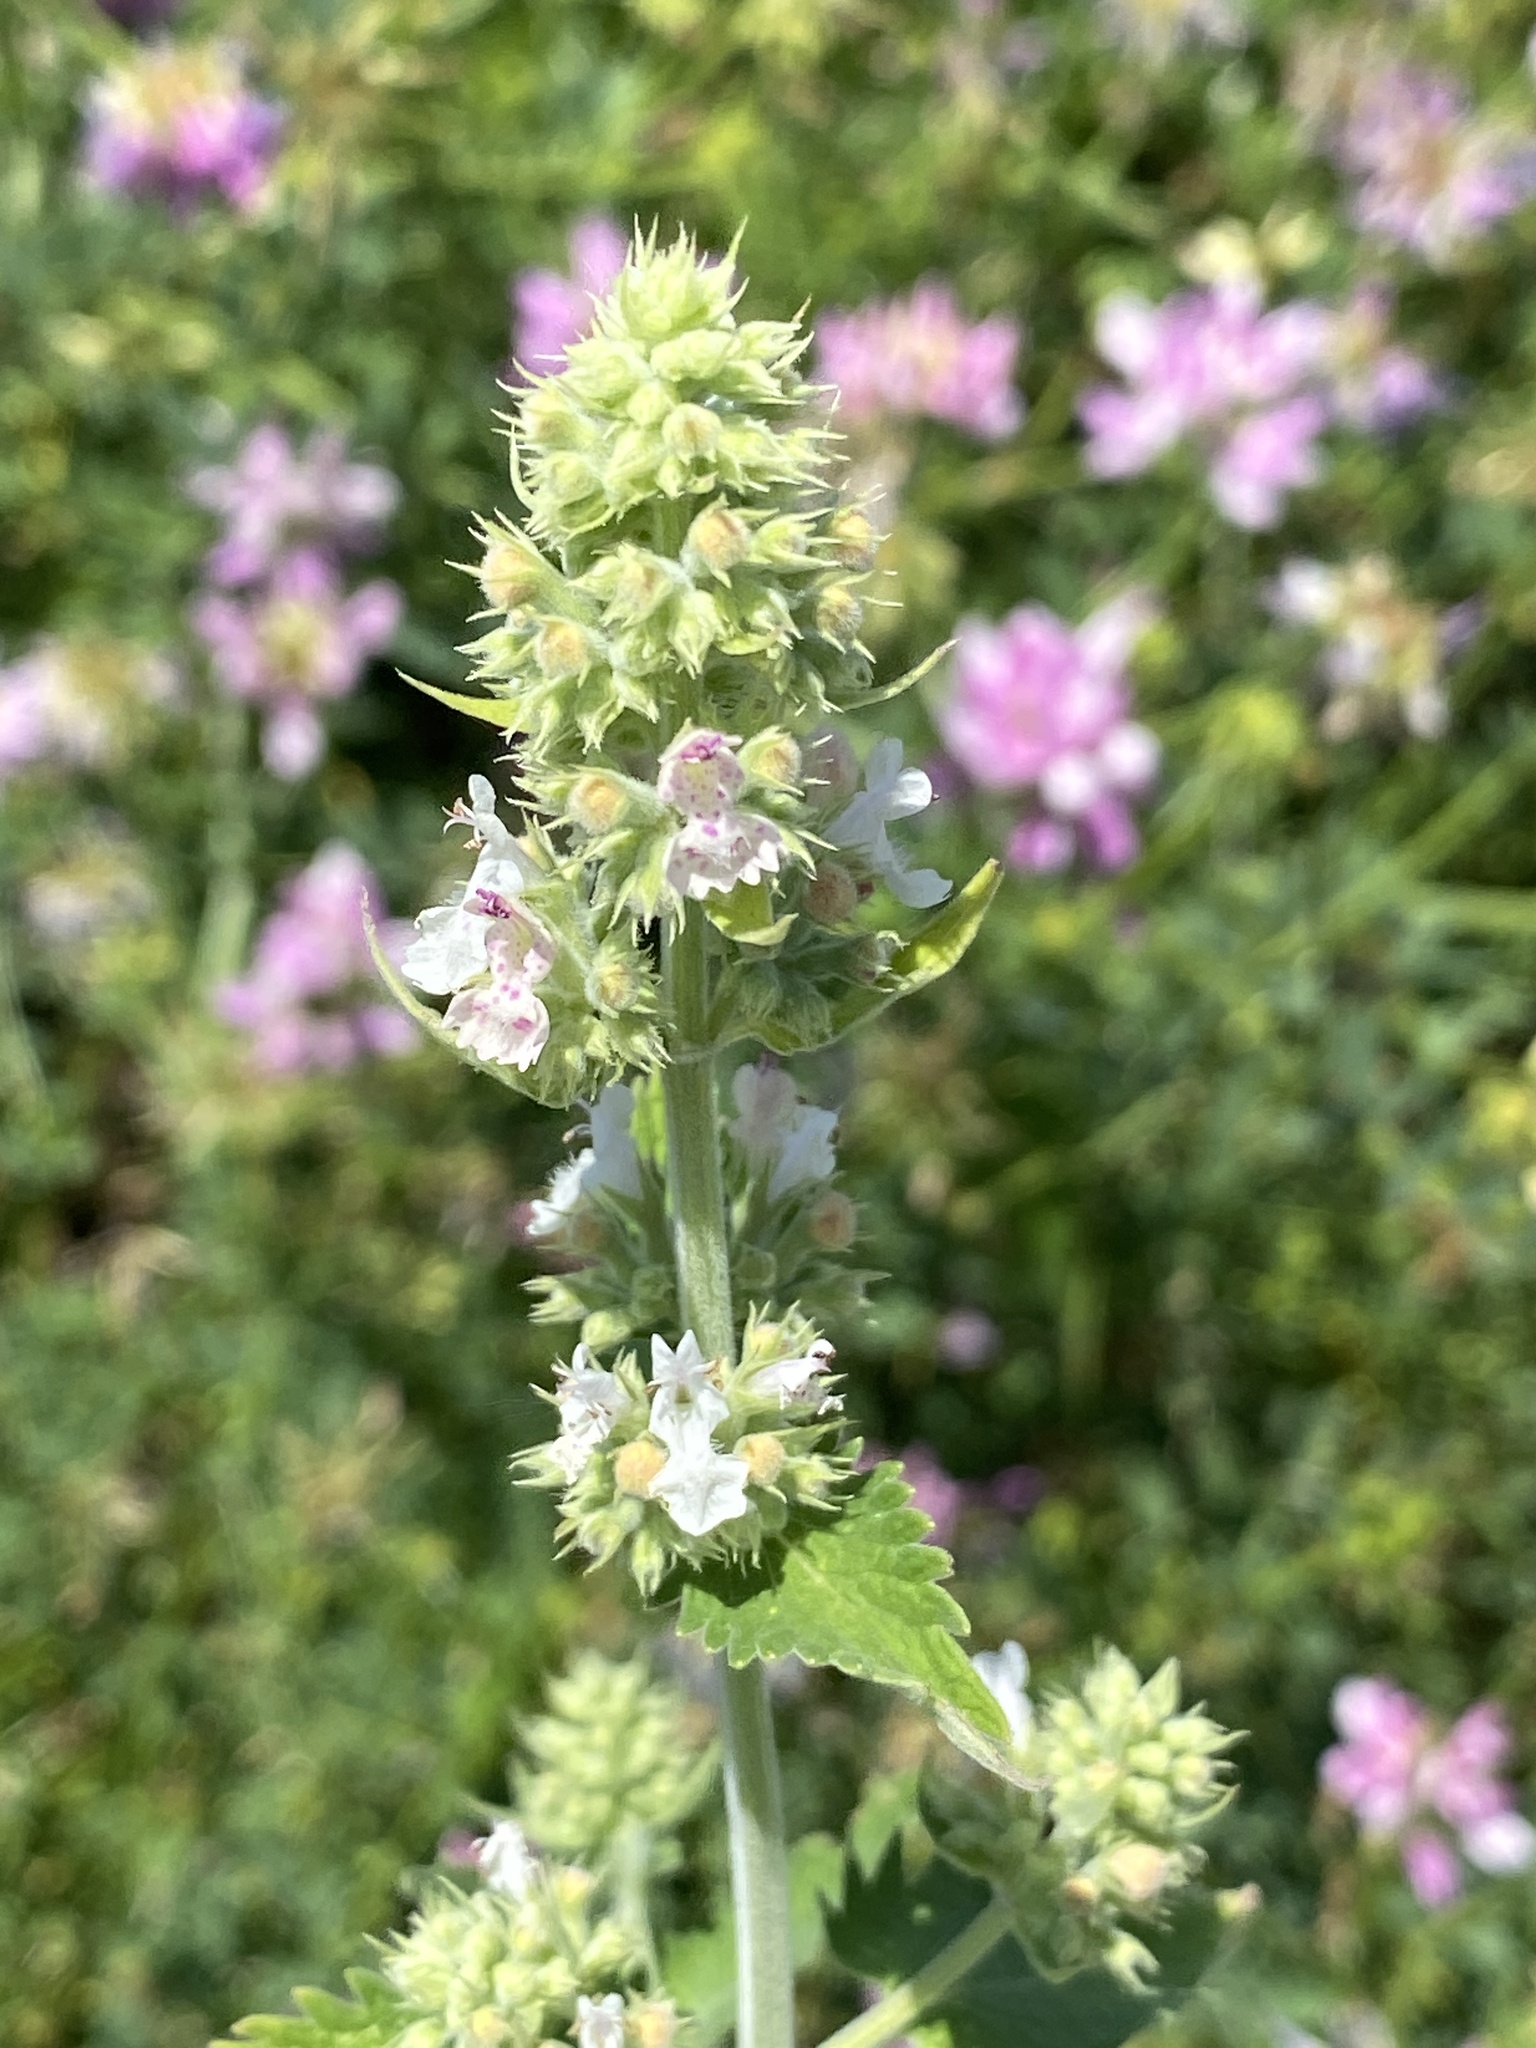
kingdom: Plantae
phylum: Tracheophyta
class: Magnoliopsida
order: Lamiales
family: Lamiaceae
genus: Nepeta
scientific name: Nepeta cataria
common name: Catnip
